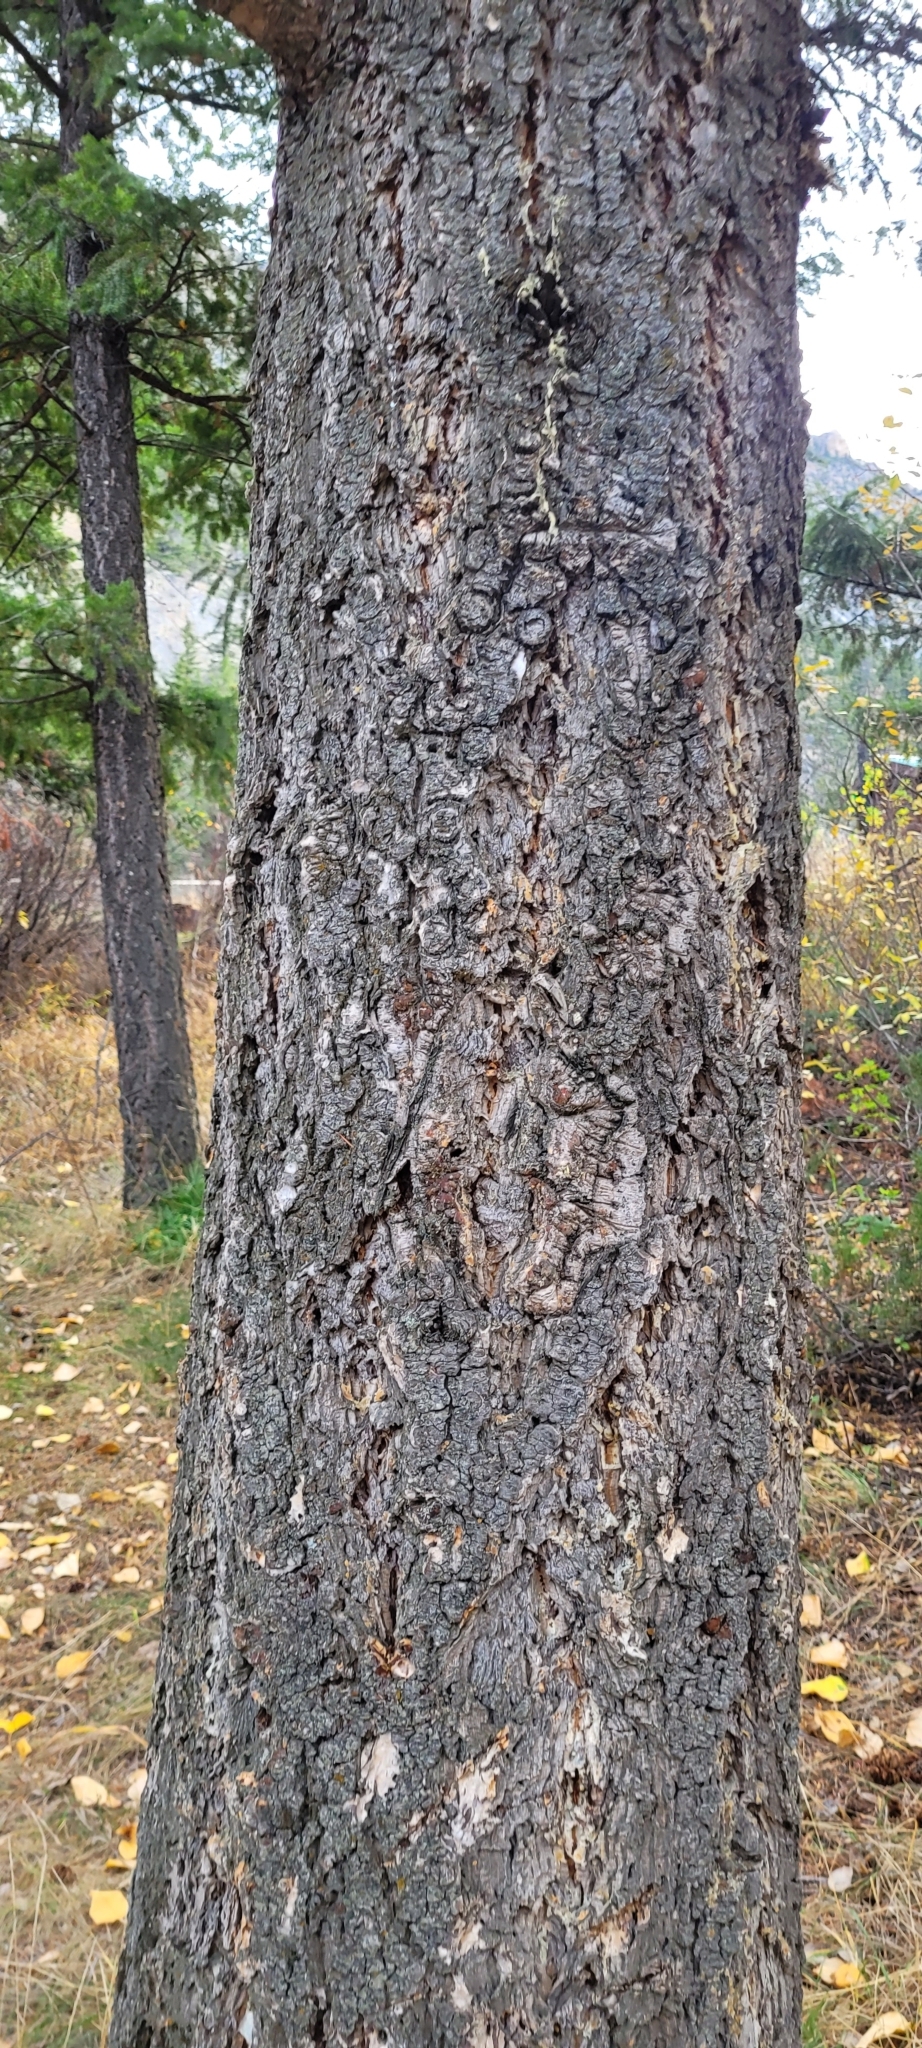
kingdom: Plantae
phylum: Tracheophyta
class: Pinopsida
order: Pinales
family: Pinaceae
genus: Pseudotsuga
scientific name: Pseudotsuga menziesii
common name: Douglas fir
